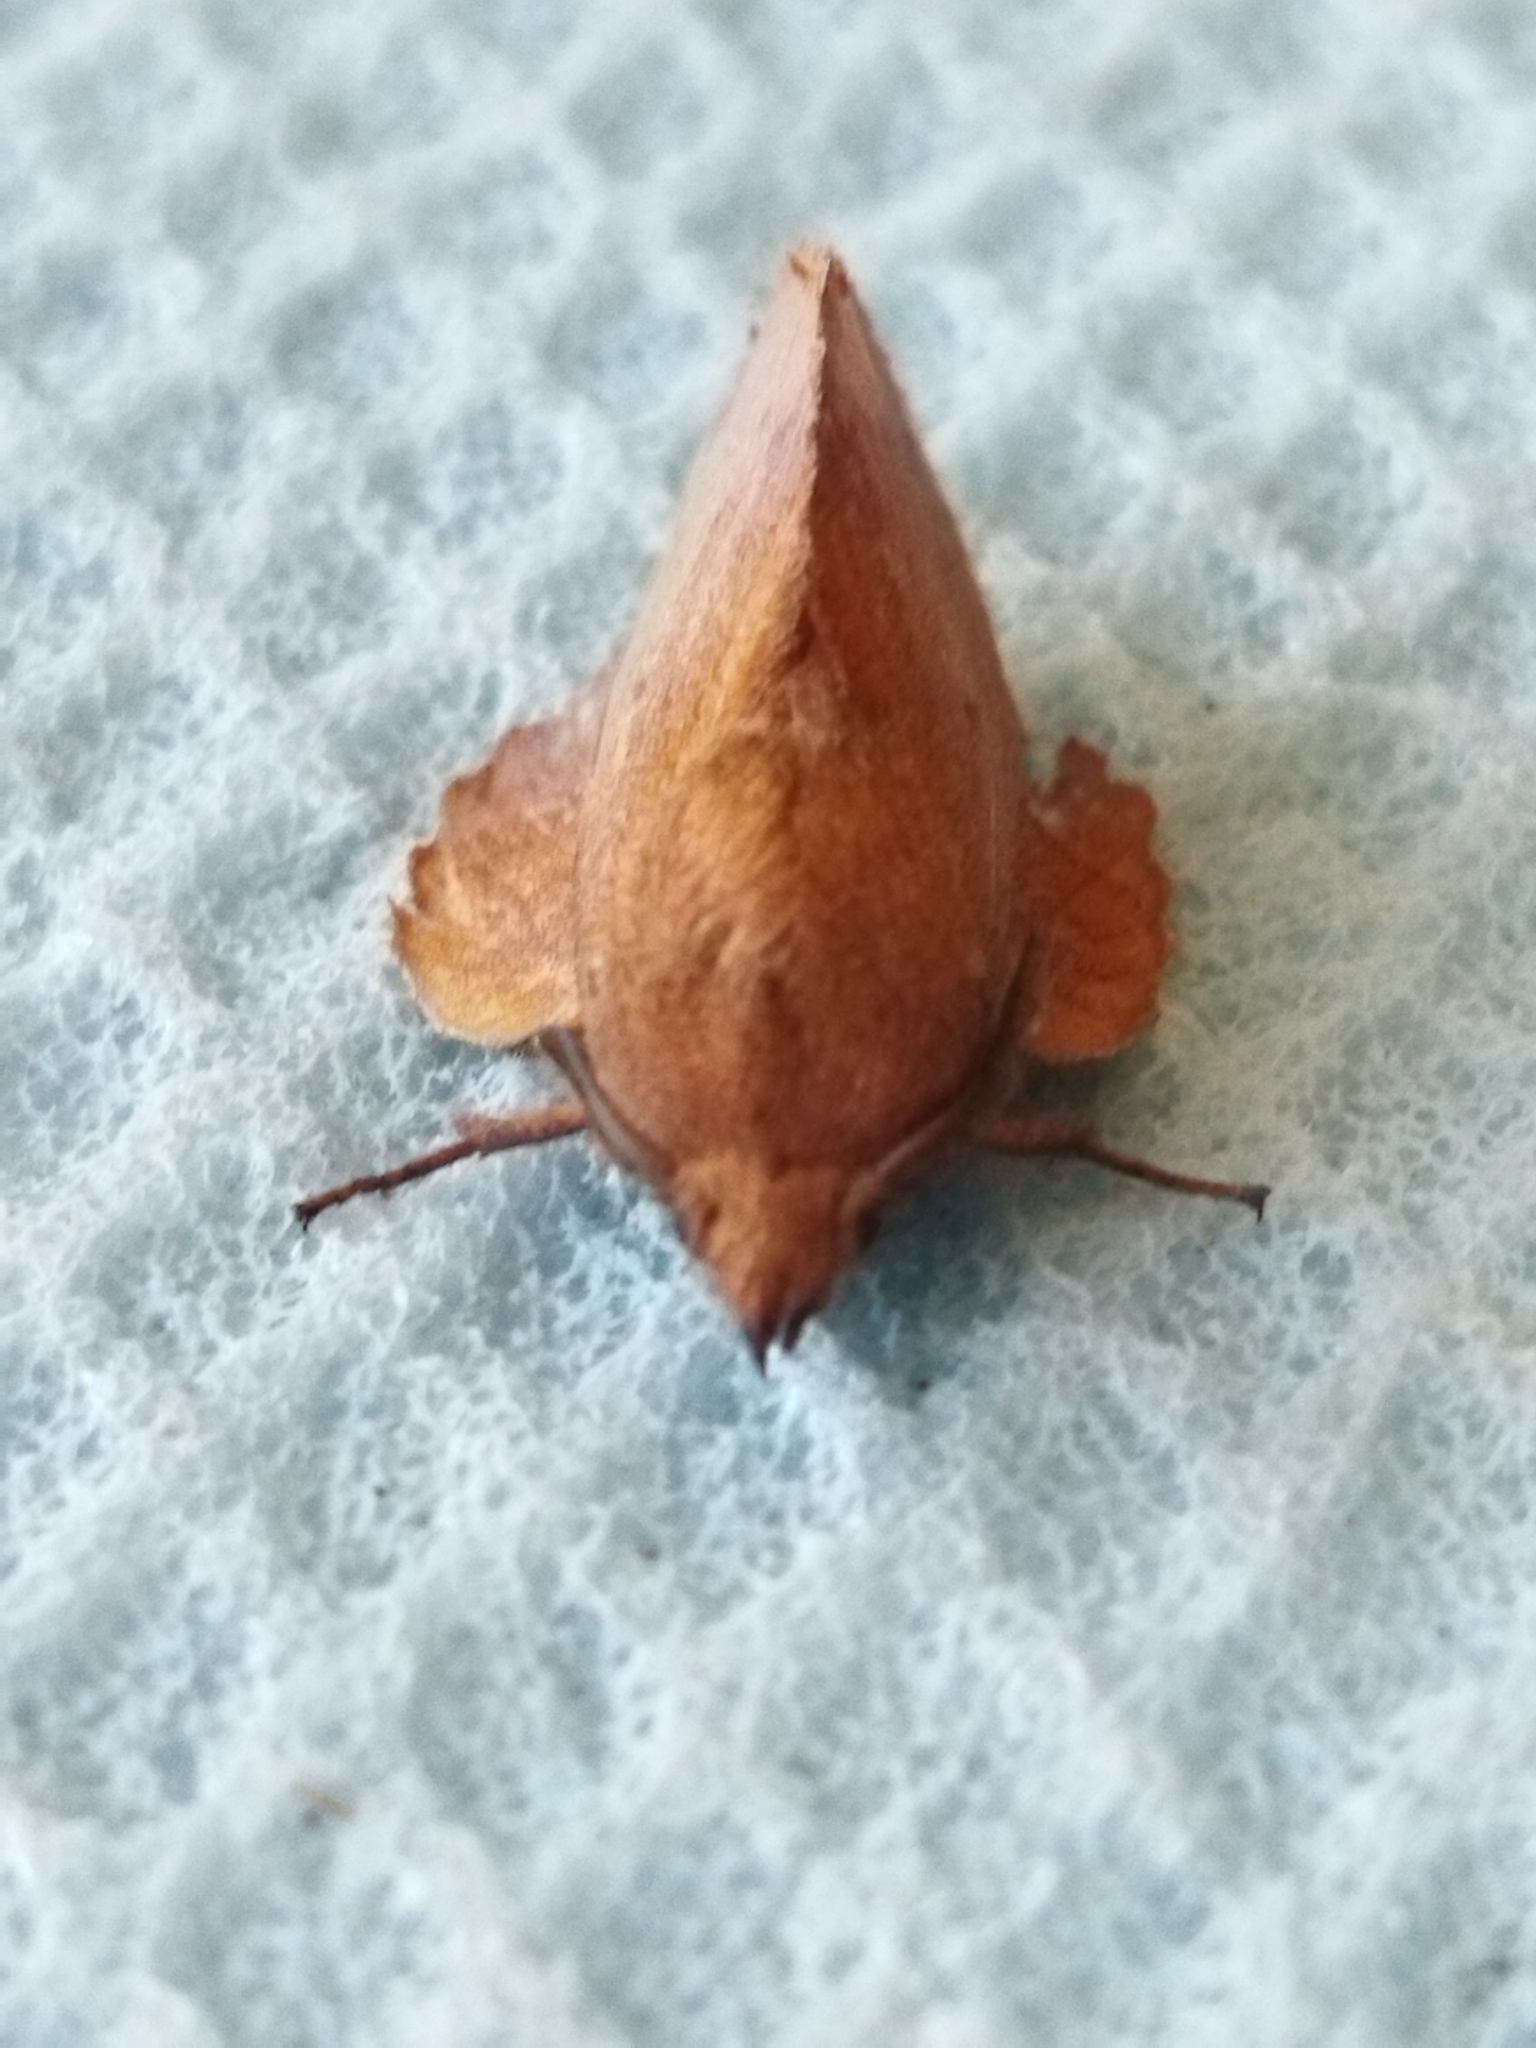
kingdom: Animalia
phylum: Arthropoda
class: Insecta
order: Lepidoptera
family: Lasiocampidae
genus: Gastropacha
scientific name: Gastropacha quercifolia
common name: Lappet
